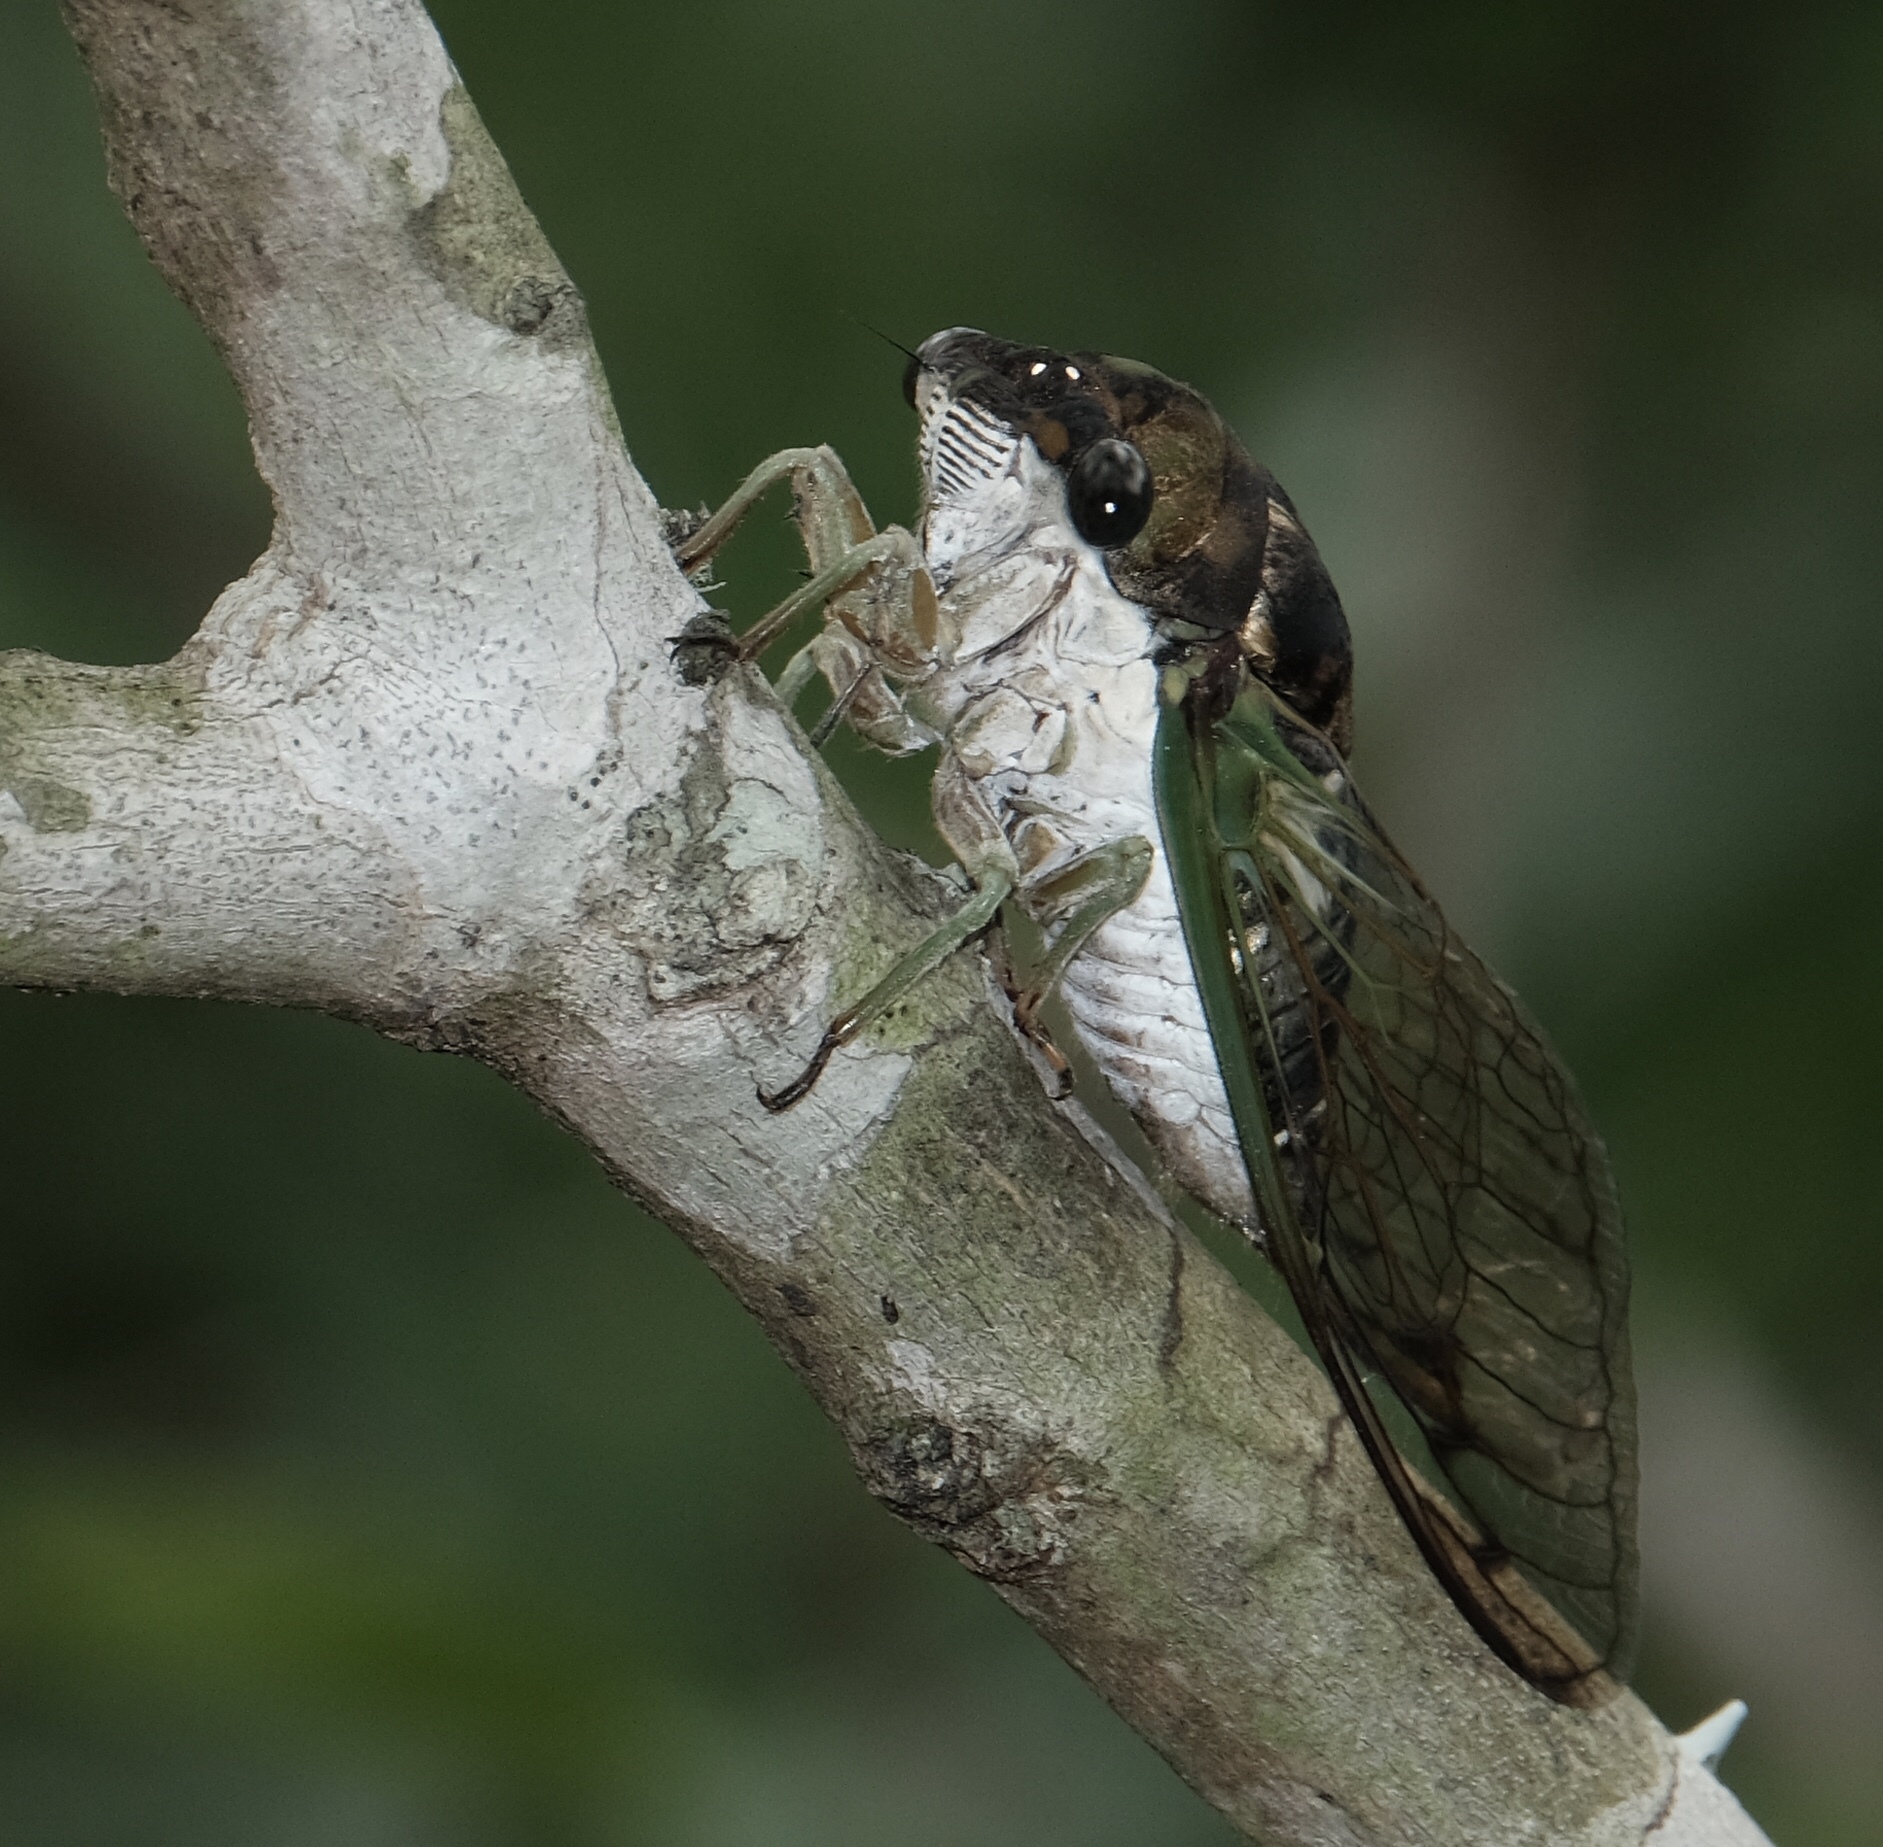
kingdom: Animalia
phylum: Arthropoda
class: Insecta
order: Hemiptera
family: Cicadidae
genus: Neotibicen
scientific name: Neotibicen tibicen
